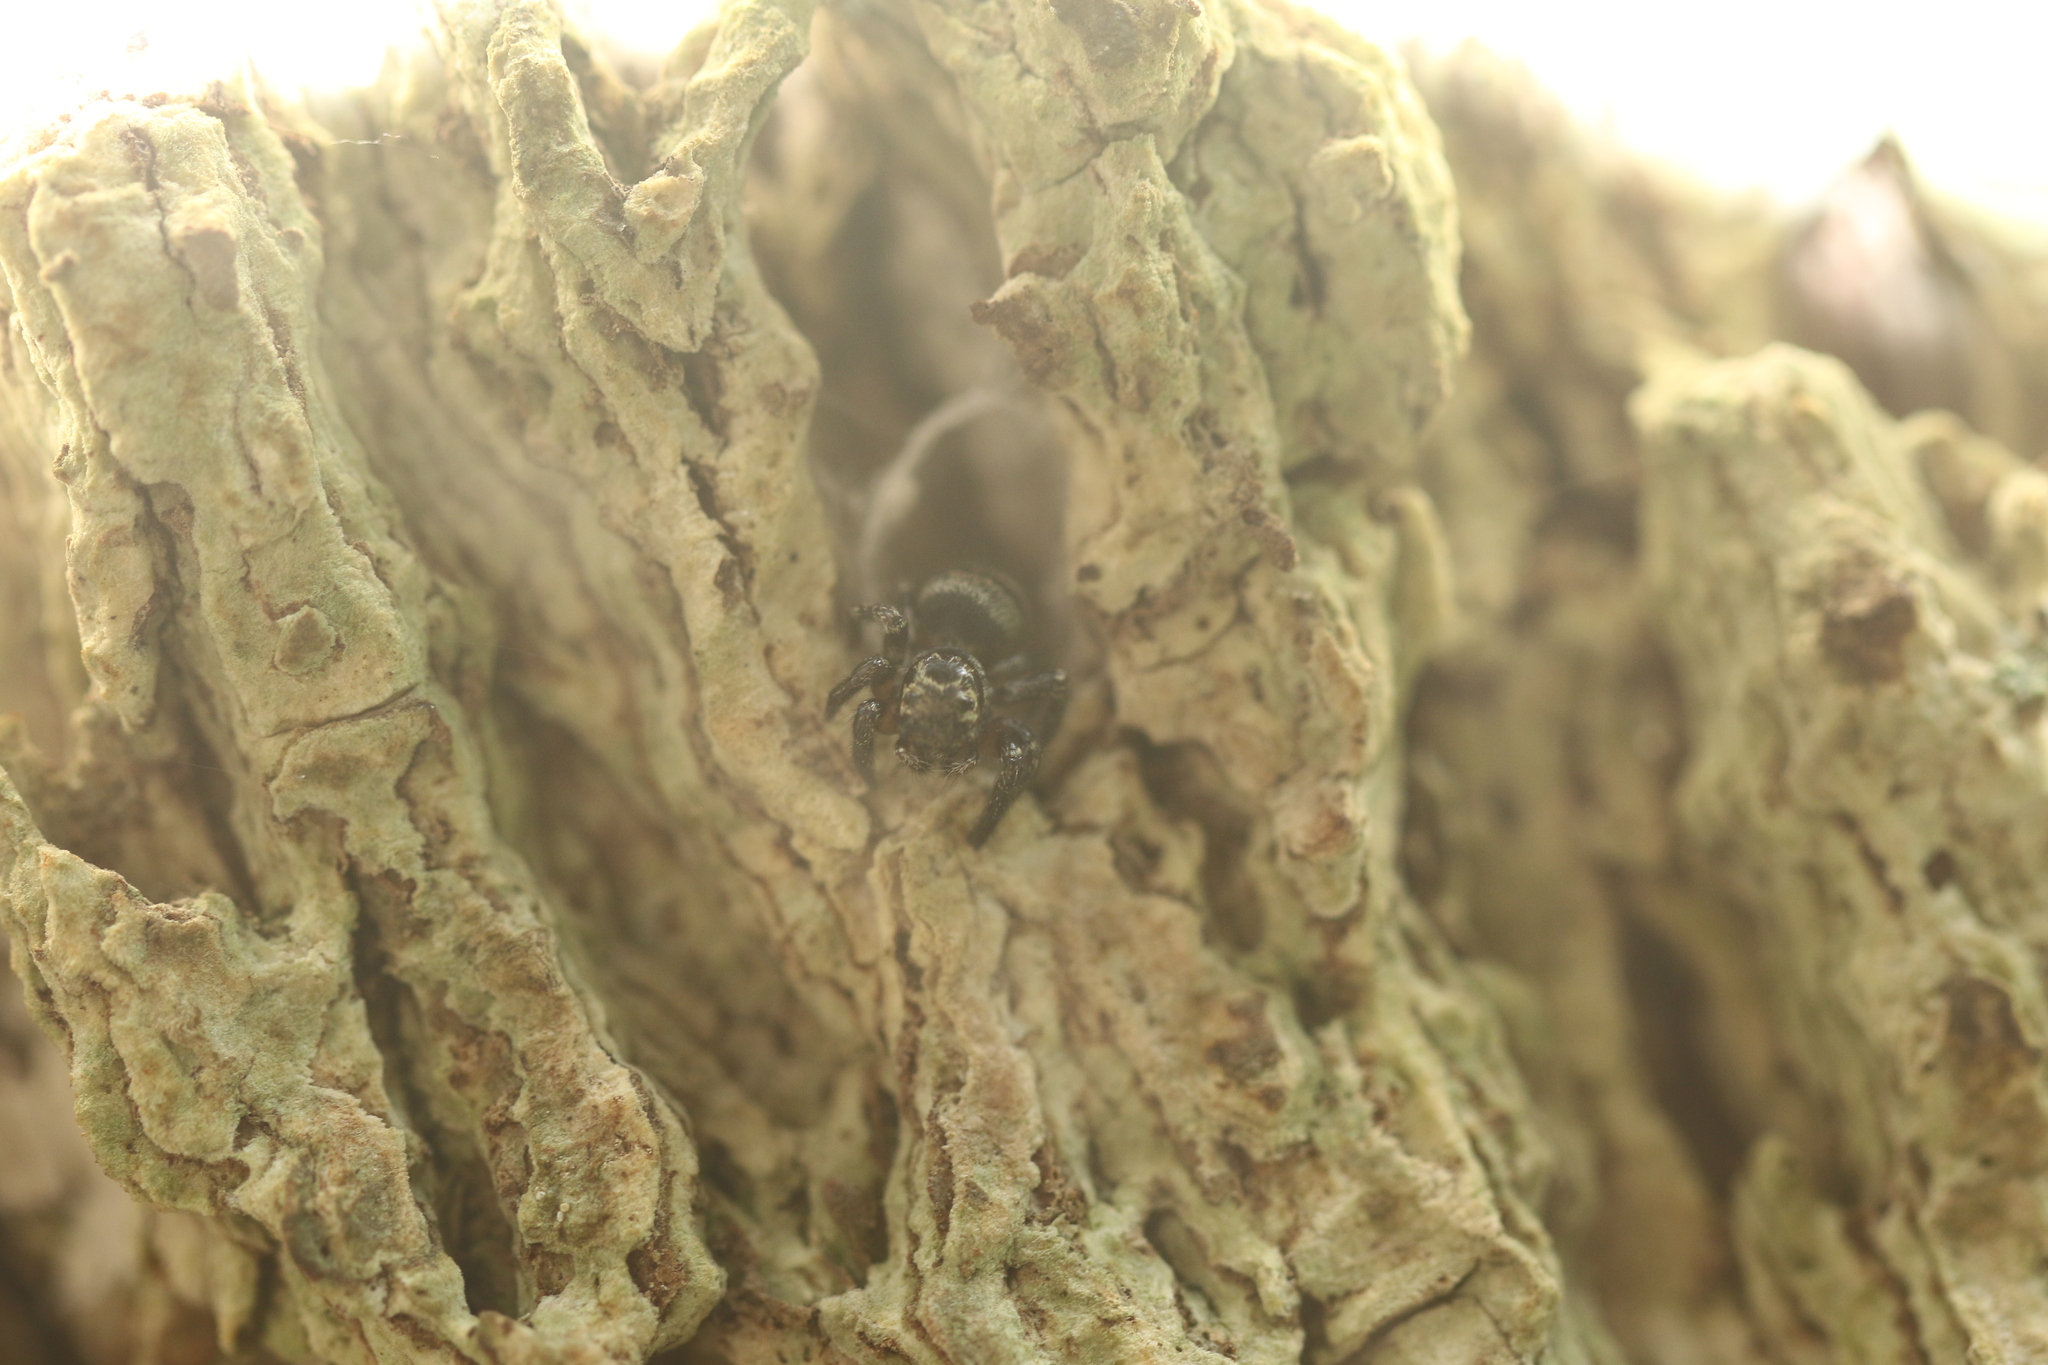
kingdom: Animalia
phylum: Arthropoda
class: Arachnida
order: Araneae
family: Salticidae
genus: Corythalia
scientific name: Corythalia conferta
